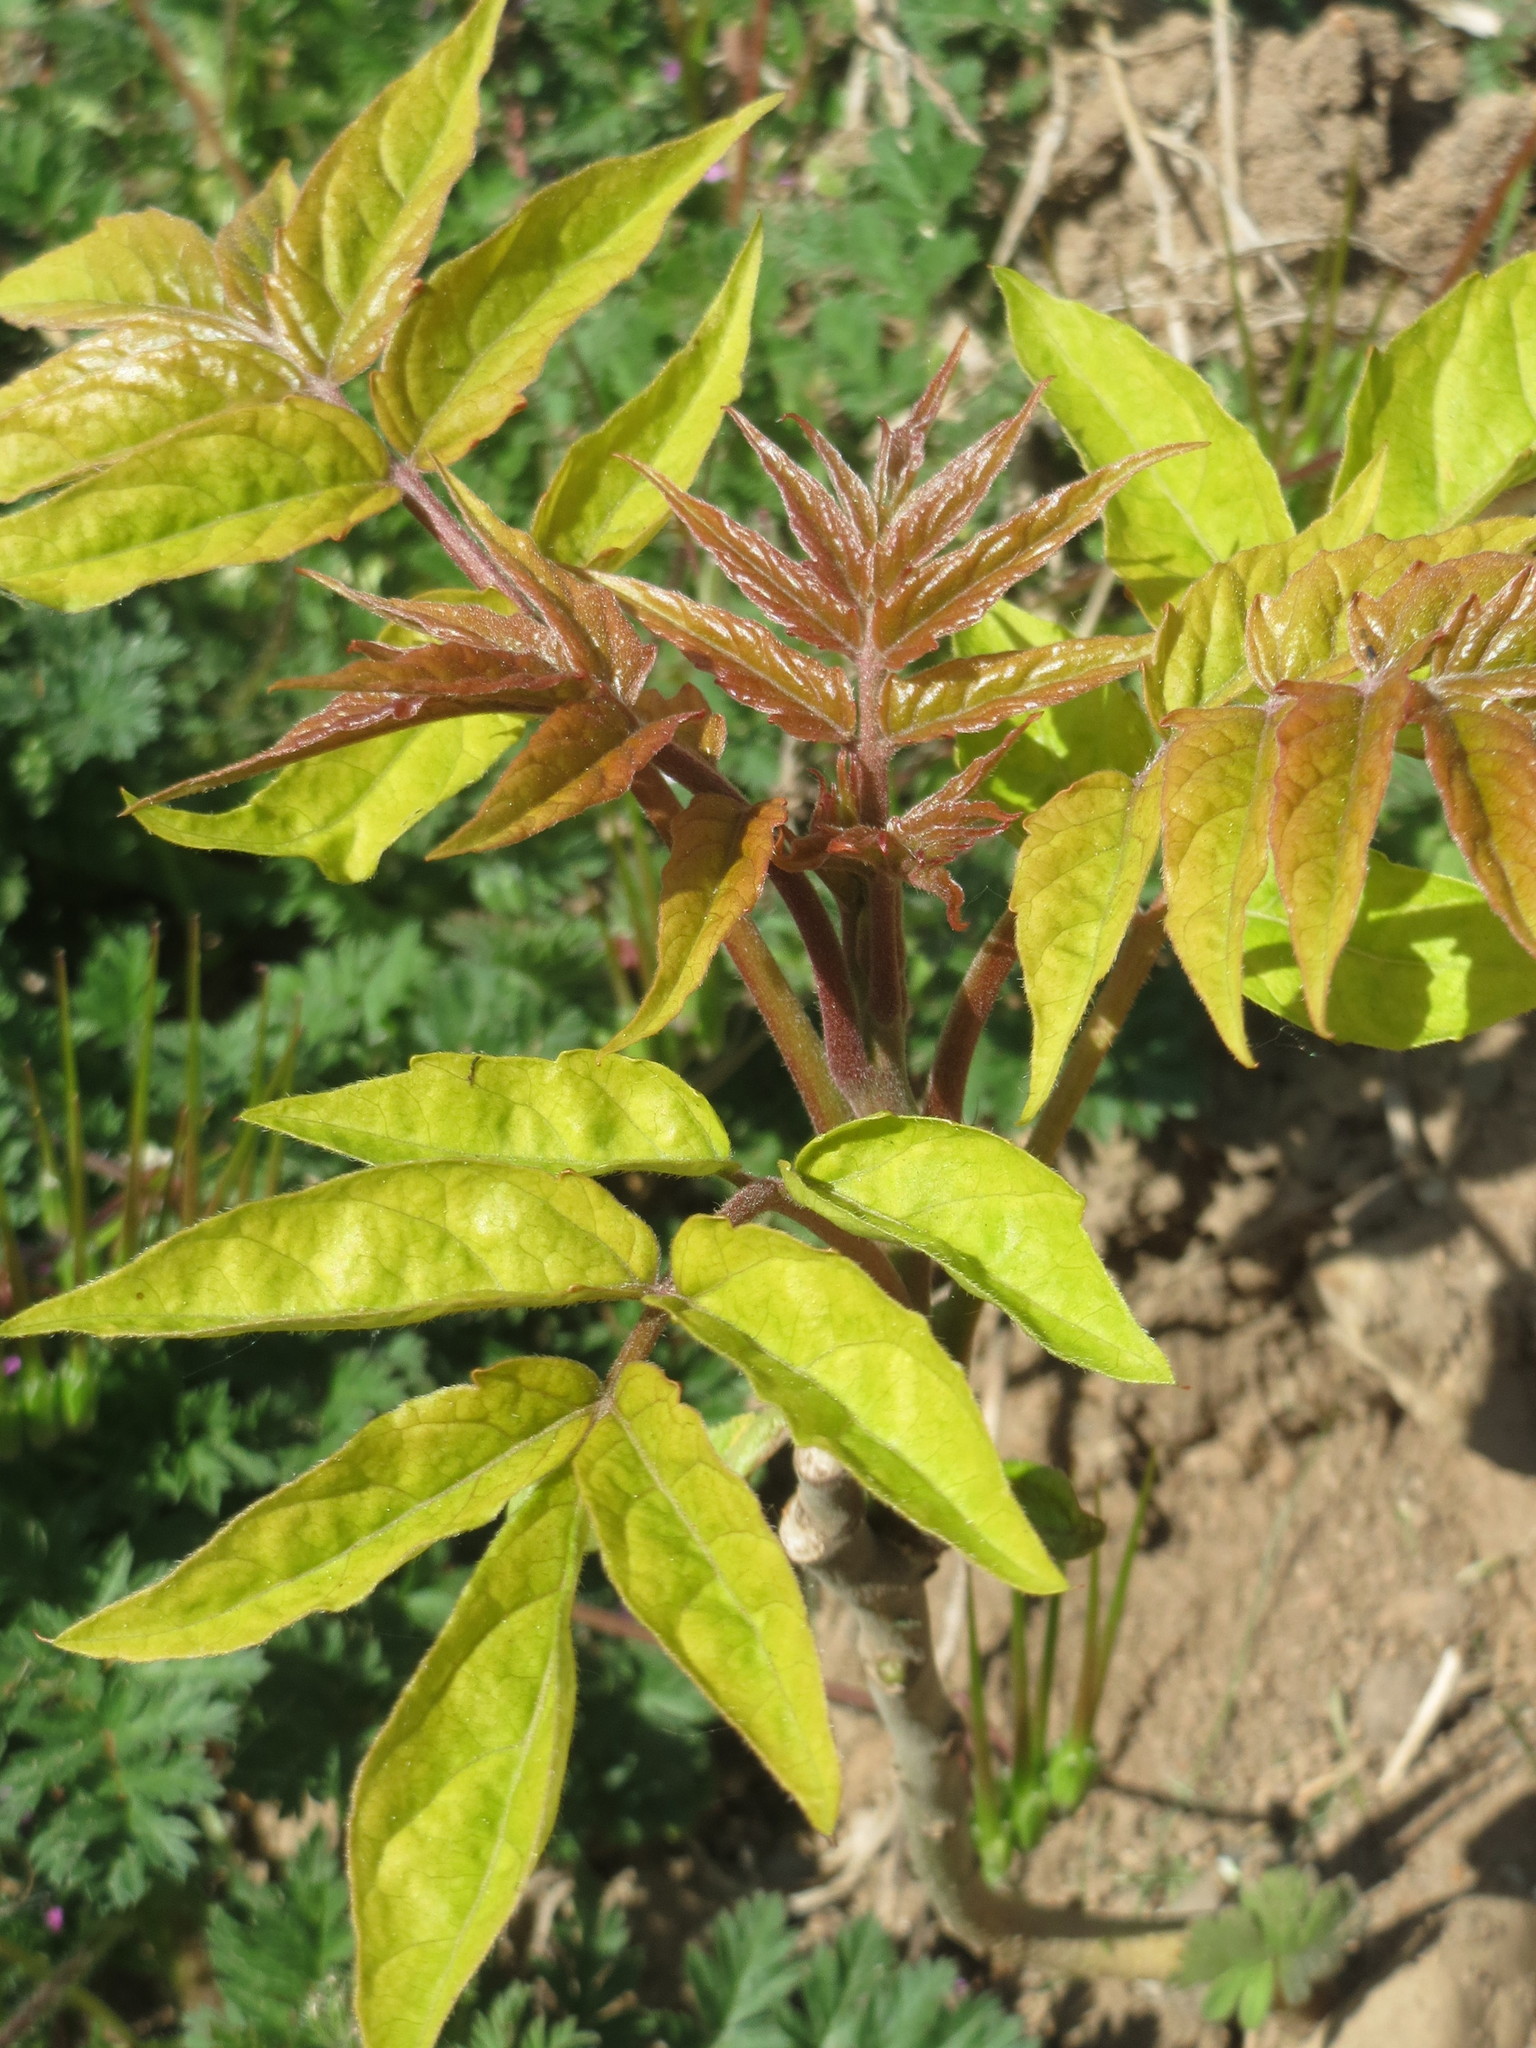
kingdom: Plantae
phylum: Tracheophyta
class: Magnoliopsida
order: Sapindales
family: Simaroubaceae
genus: Ailanthus
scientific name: Ailanthus altissima
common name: Tree-of-heaven
